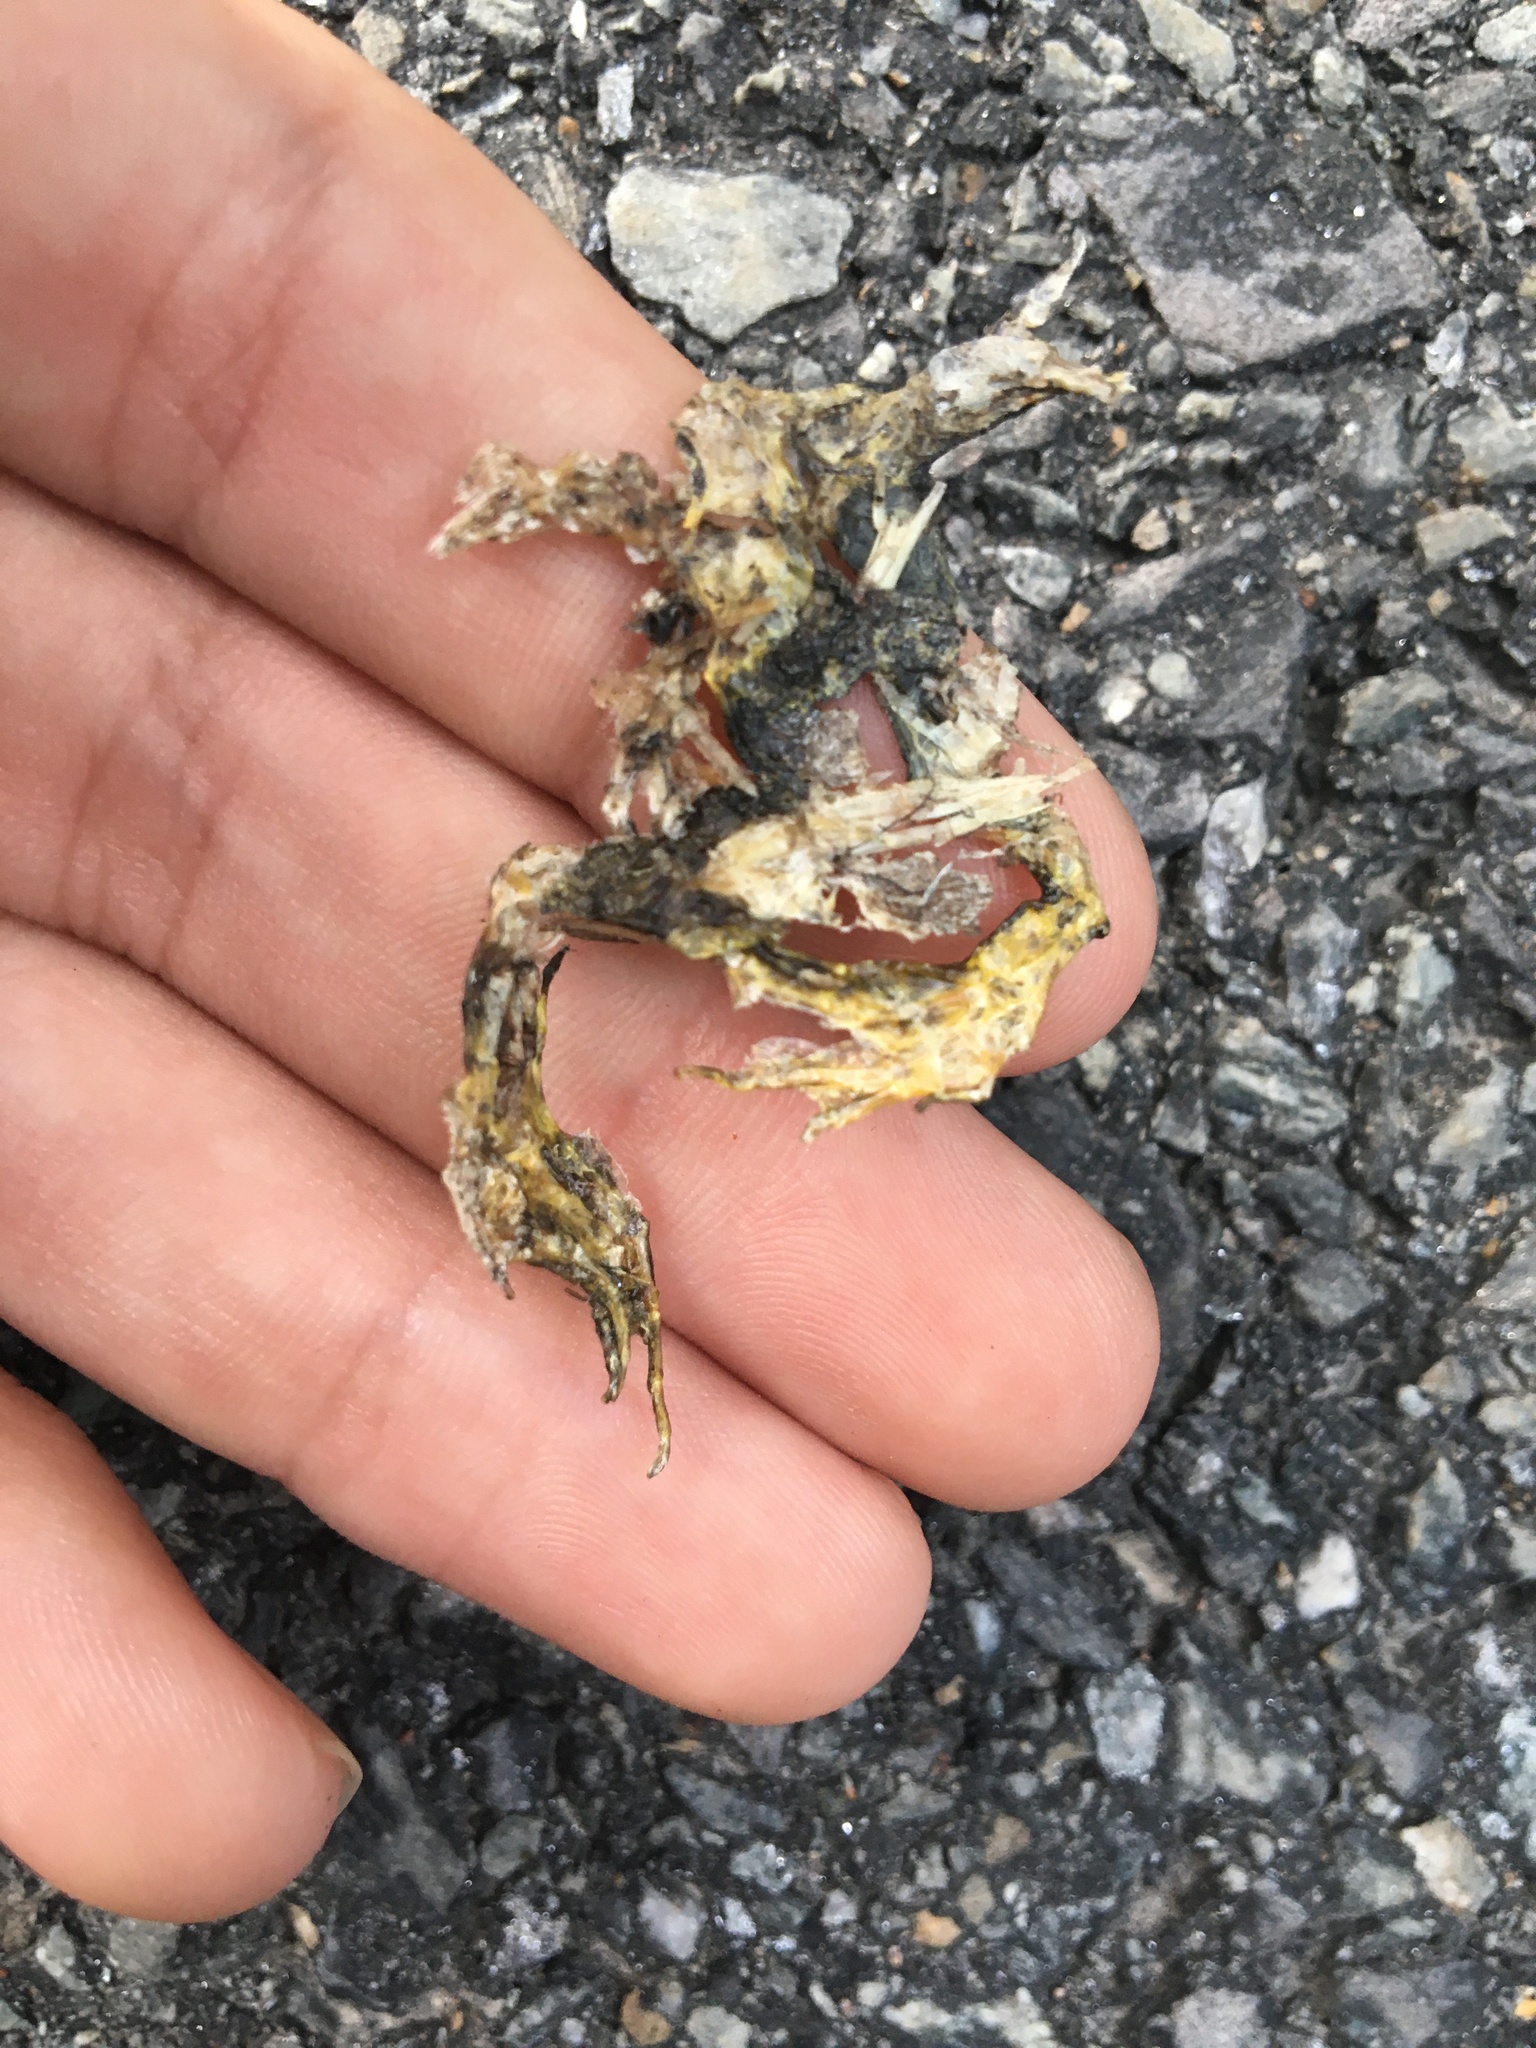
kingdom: Animalia
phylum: Chordata
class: Amphibia
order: Anura
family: Ranidae
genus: Lithobates
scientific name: Lithobates palustris
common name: Pickerel frog
